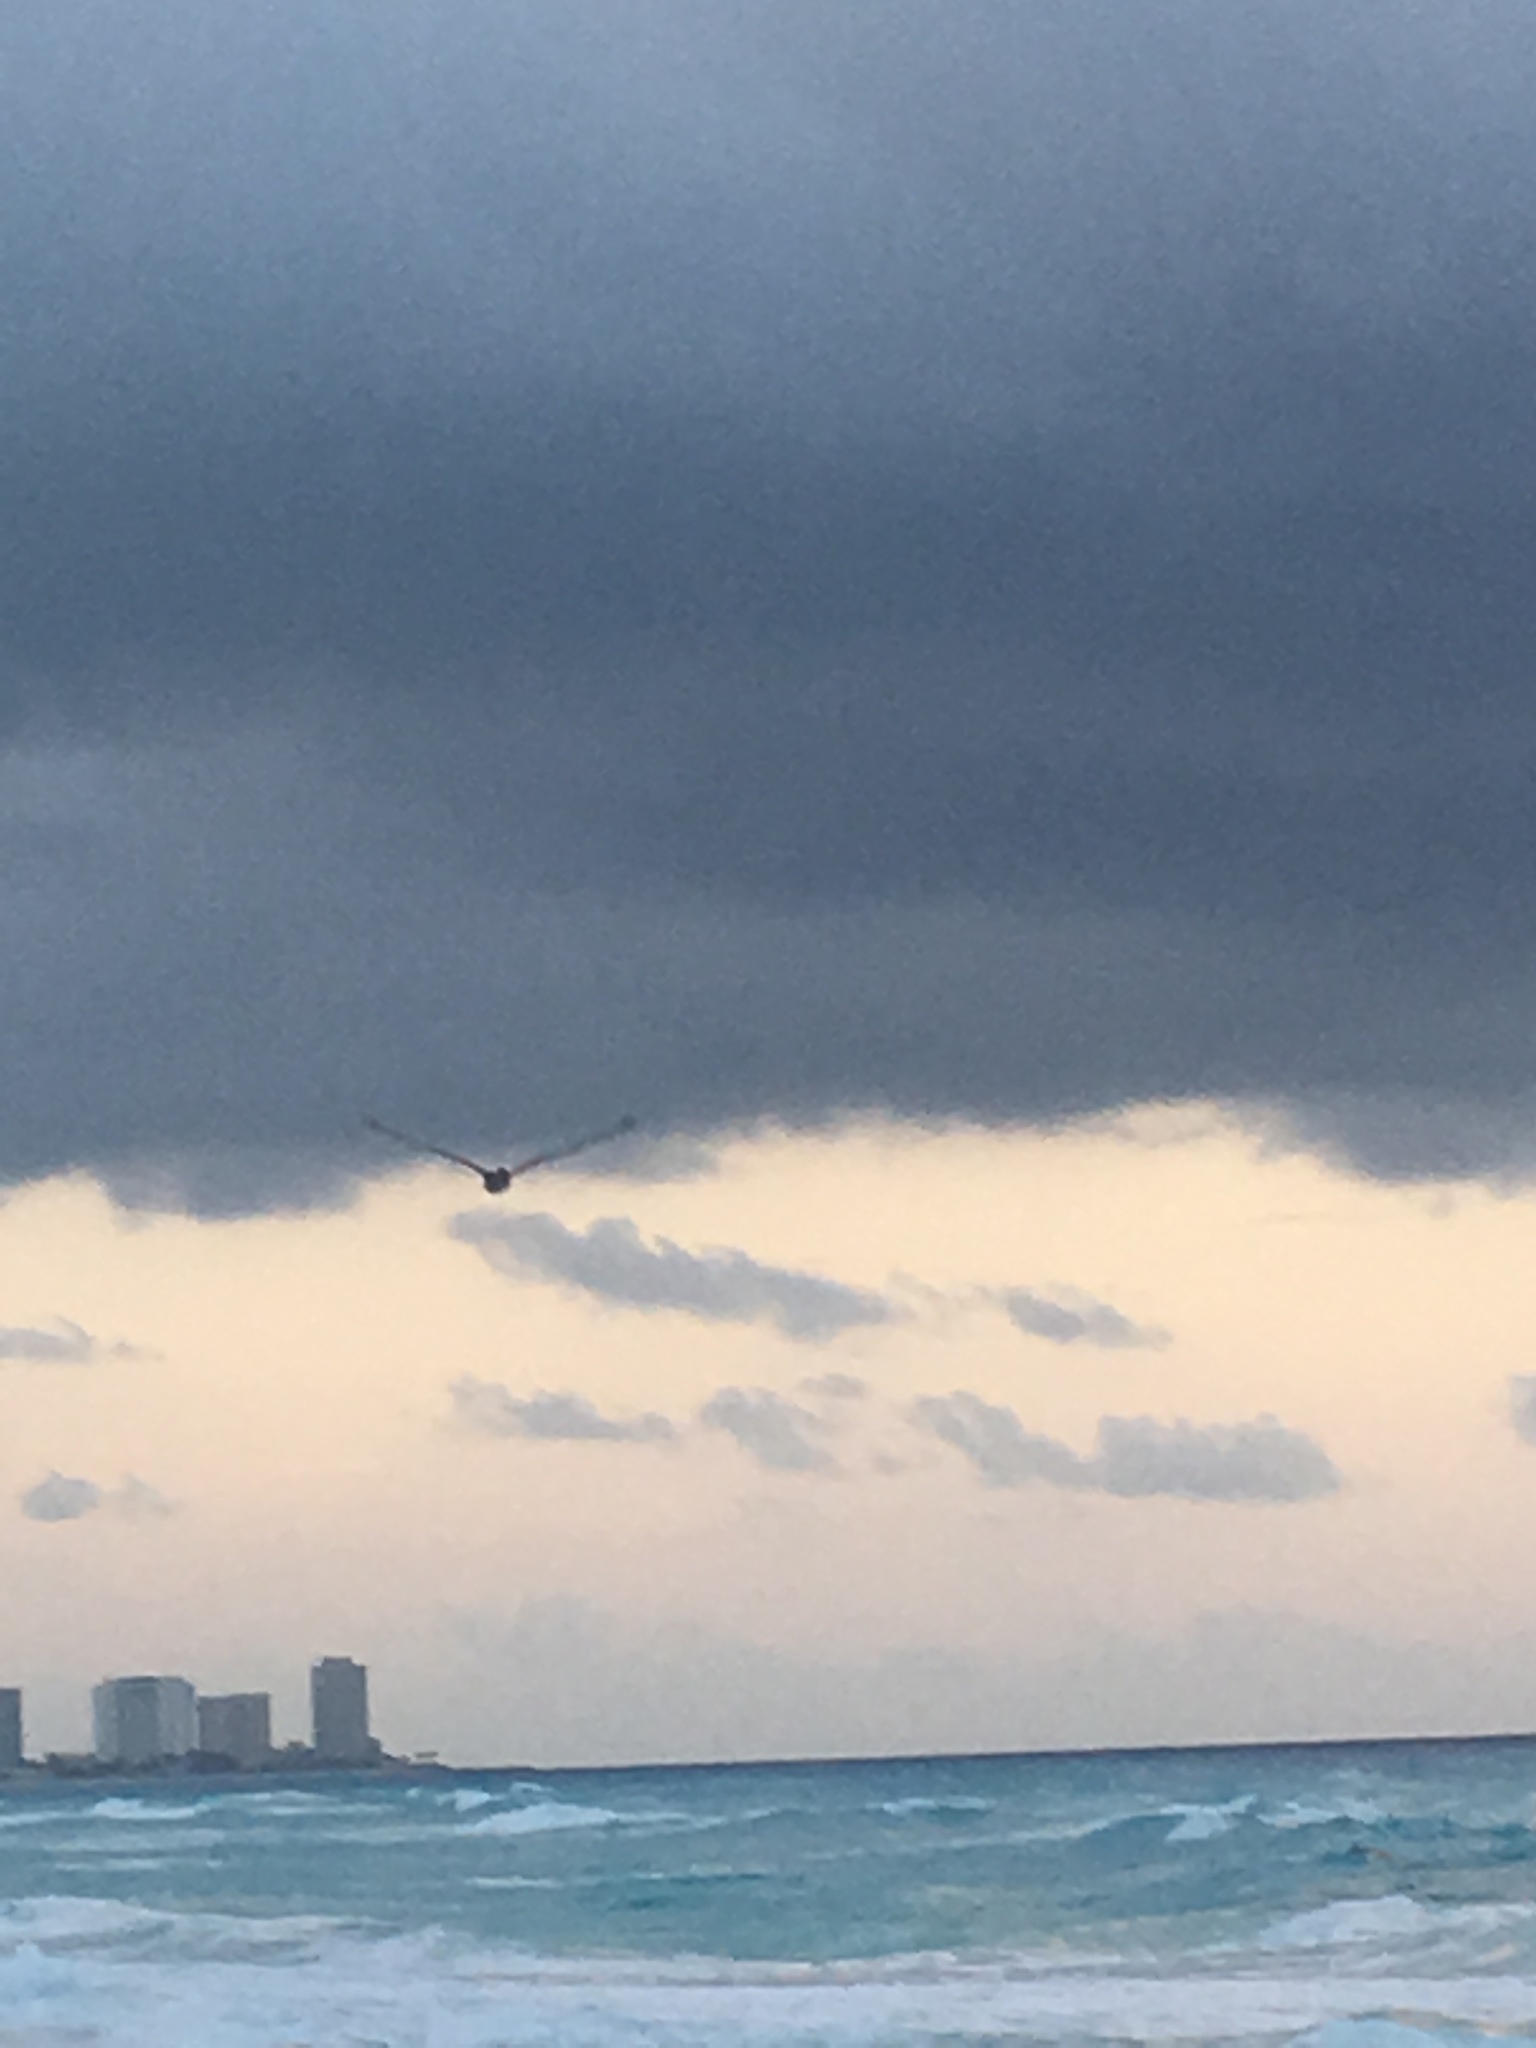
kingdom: Animalia
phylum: Chordata
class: Aves
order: Pelecaniformes
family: Pelecanidae
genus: Pelecanus
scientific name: Pelecanus occidentalis
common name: Brown pelican
